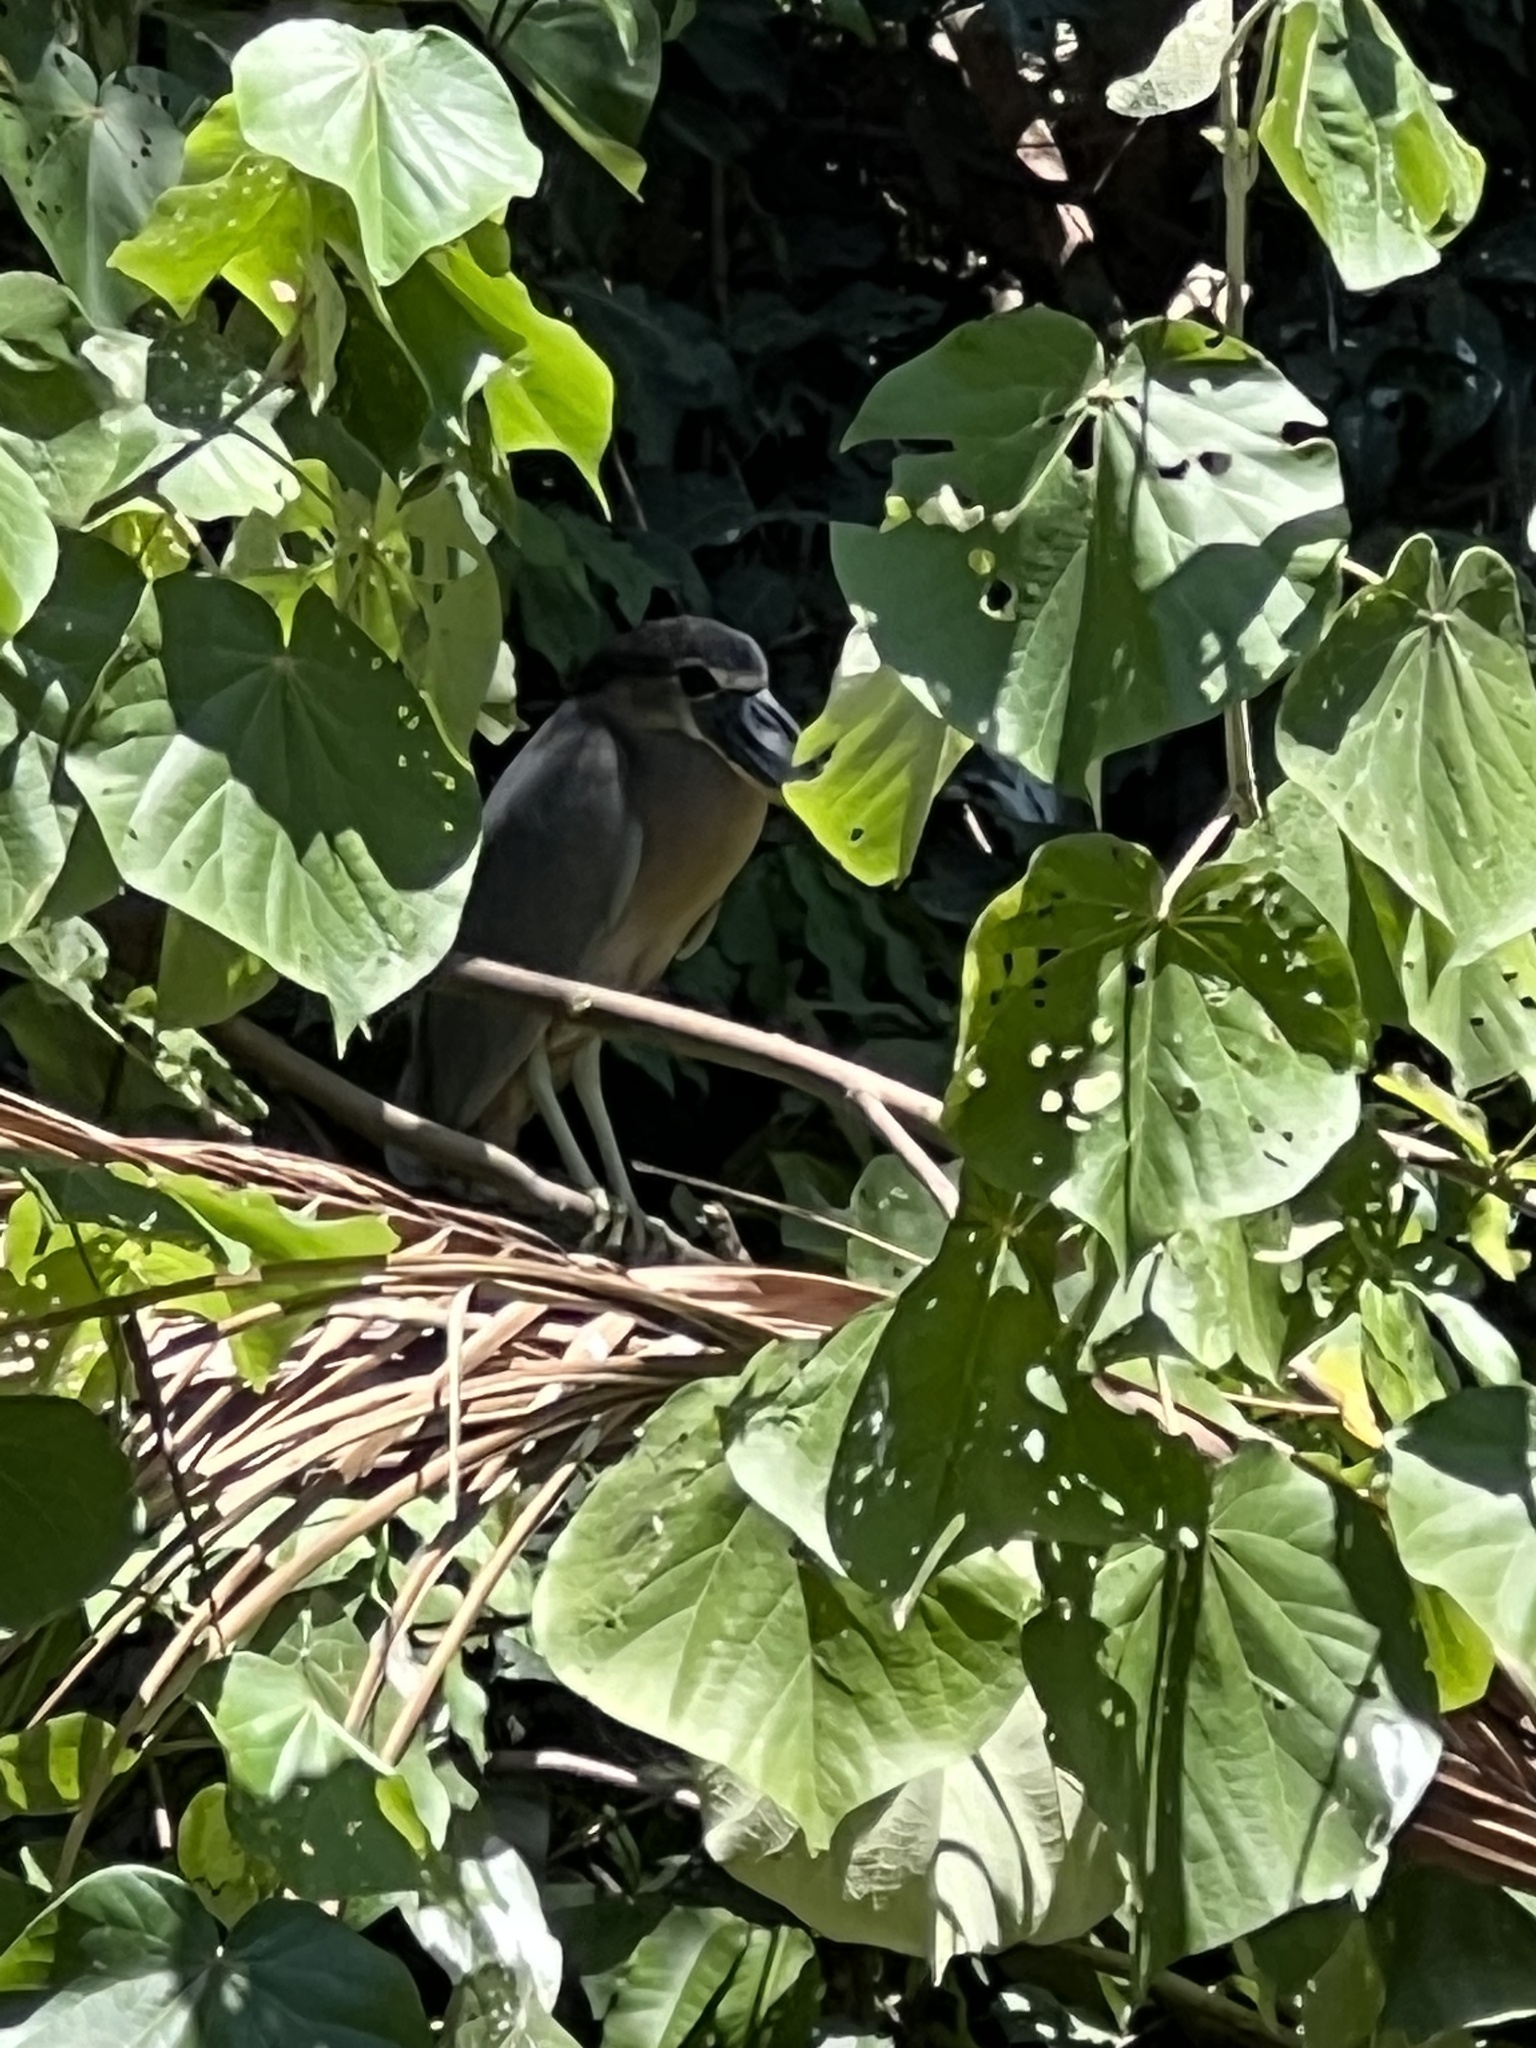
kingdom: Animalia
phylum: Chordata
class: Aves
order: Pelecaniformes
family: Ardeidae
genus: Cochlearius
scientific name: Cochlearius cochlearius
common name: Boat-billed heron
